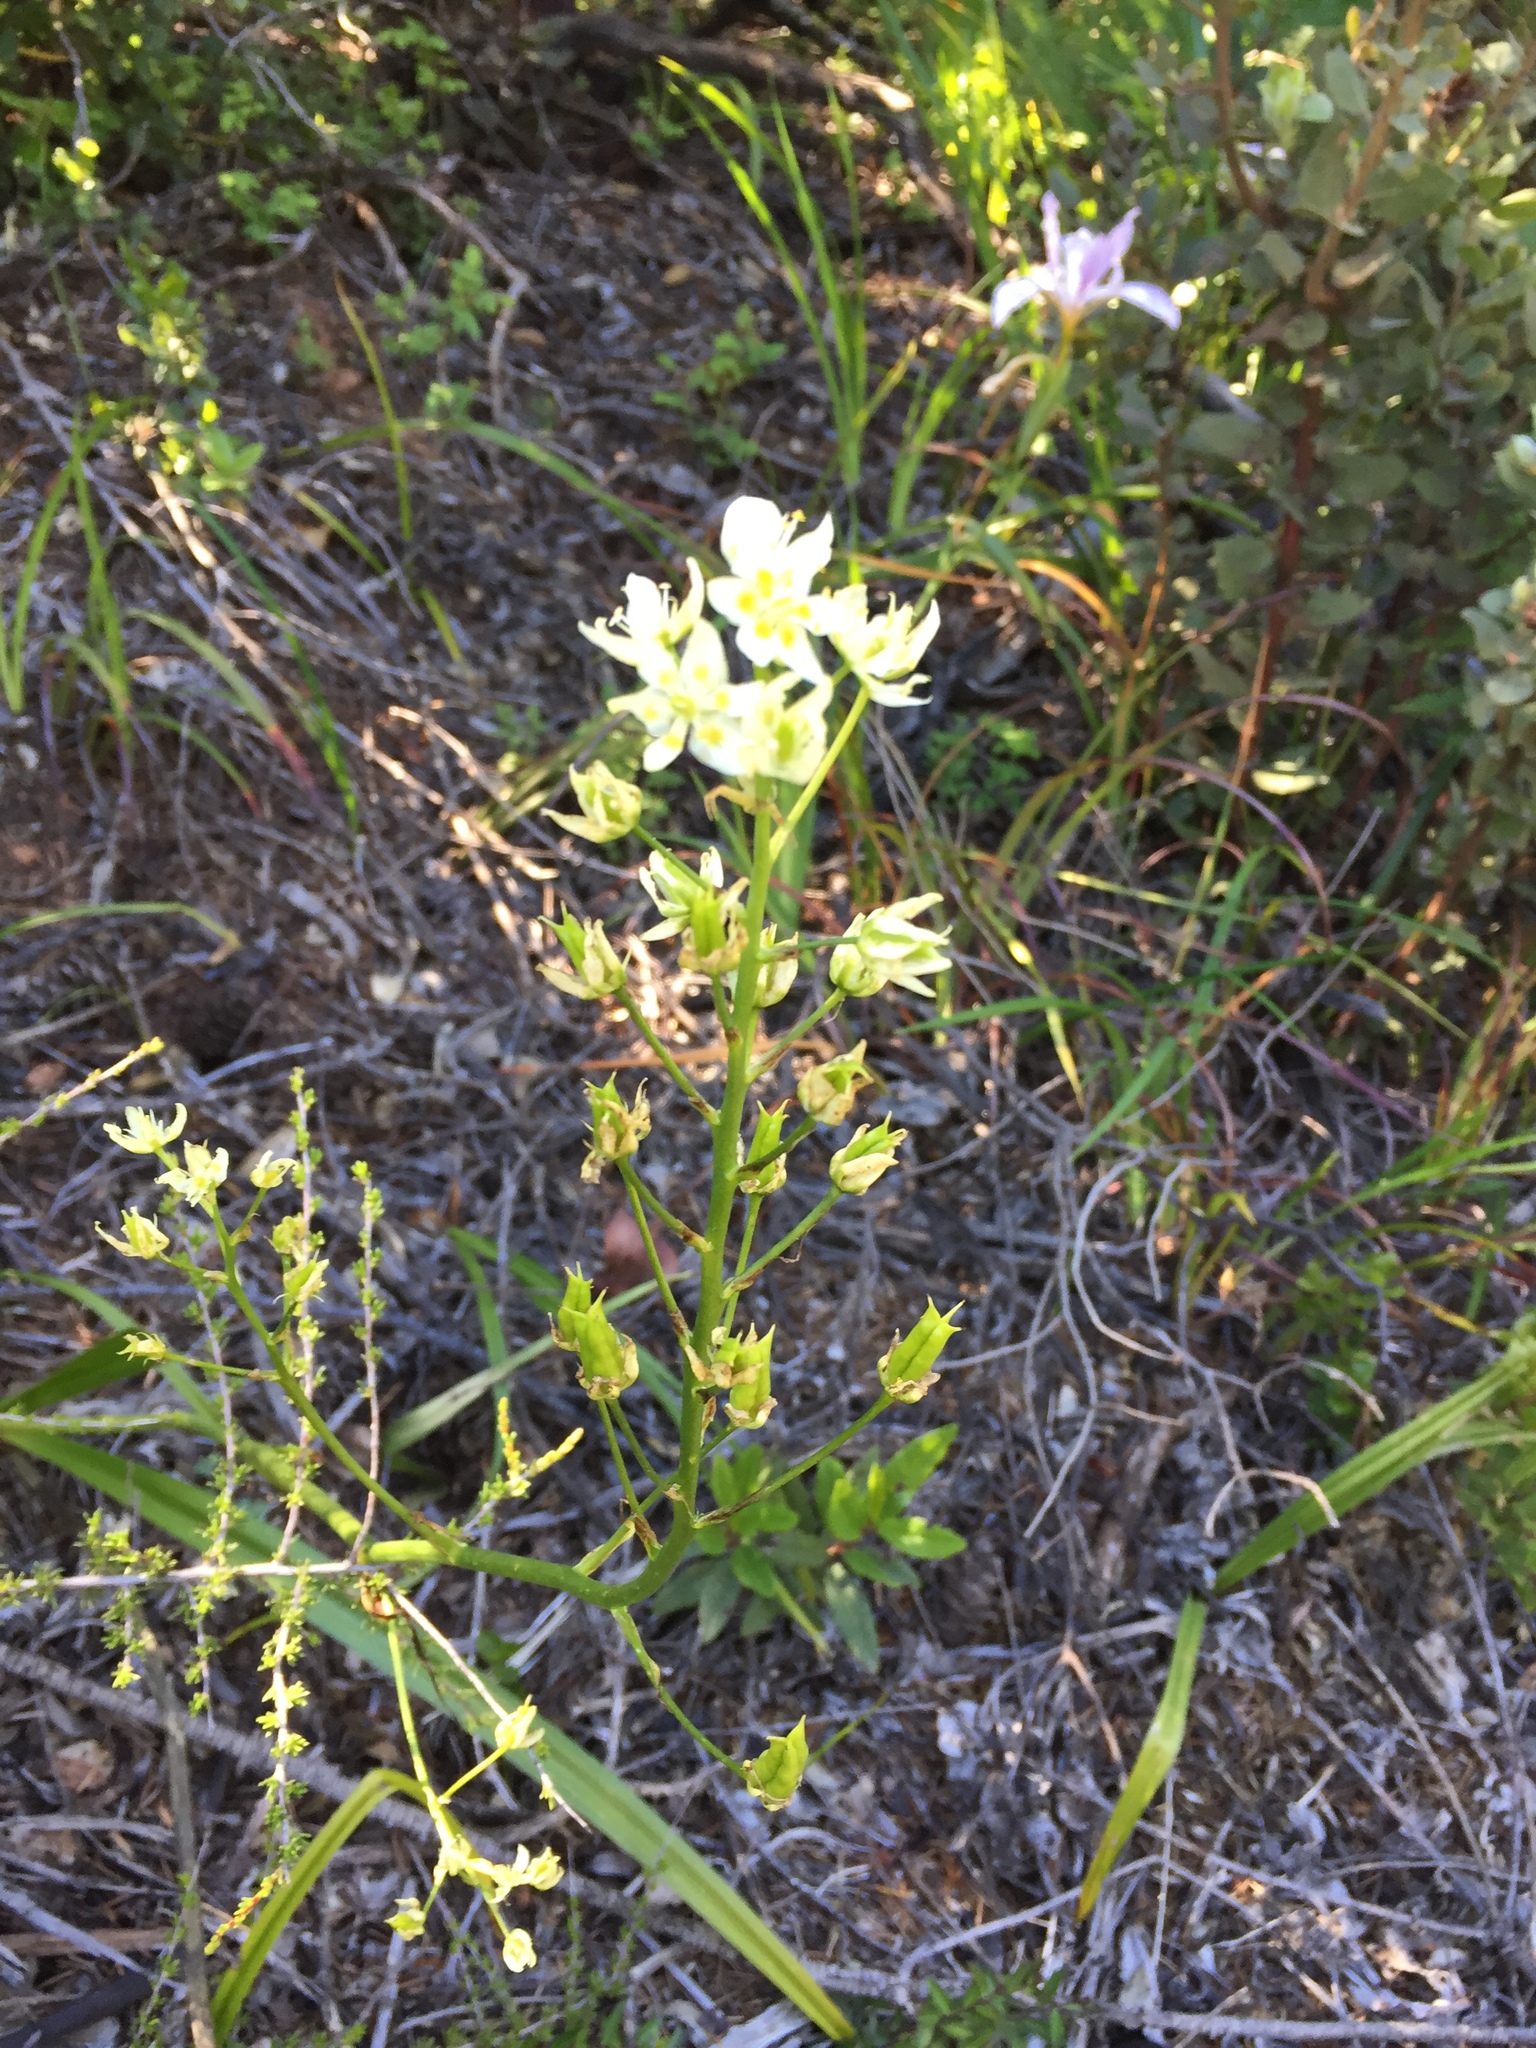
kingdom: Plantae
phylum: Tracheophyta
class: Liliopsida
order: Liliales
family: Melanthiaceae
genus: Toxicoscordion
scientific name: Toxicoscordion fremontii
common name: Fremont's death camas
